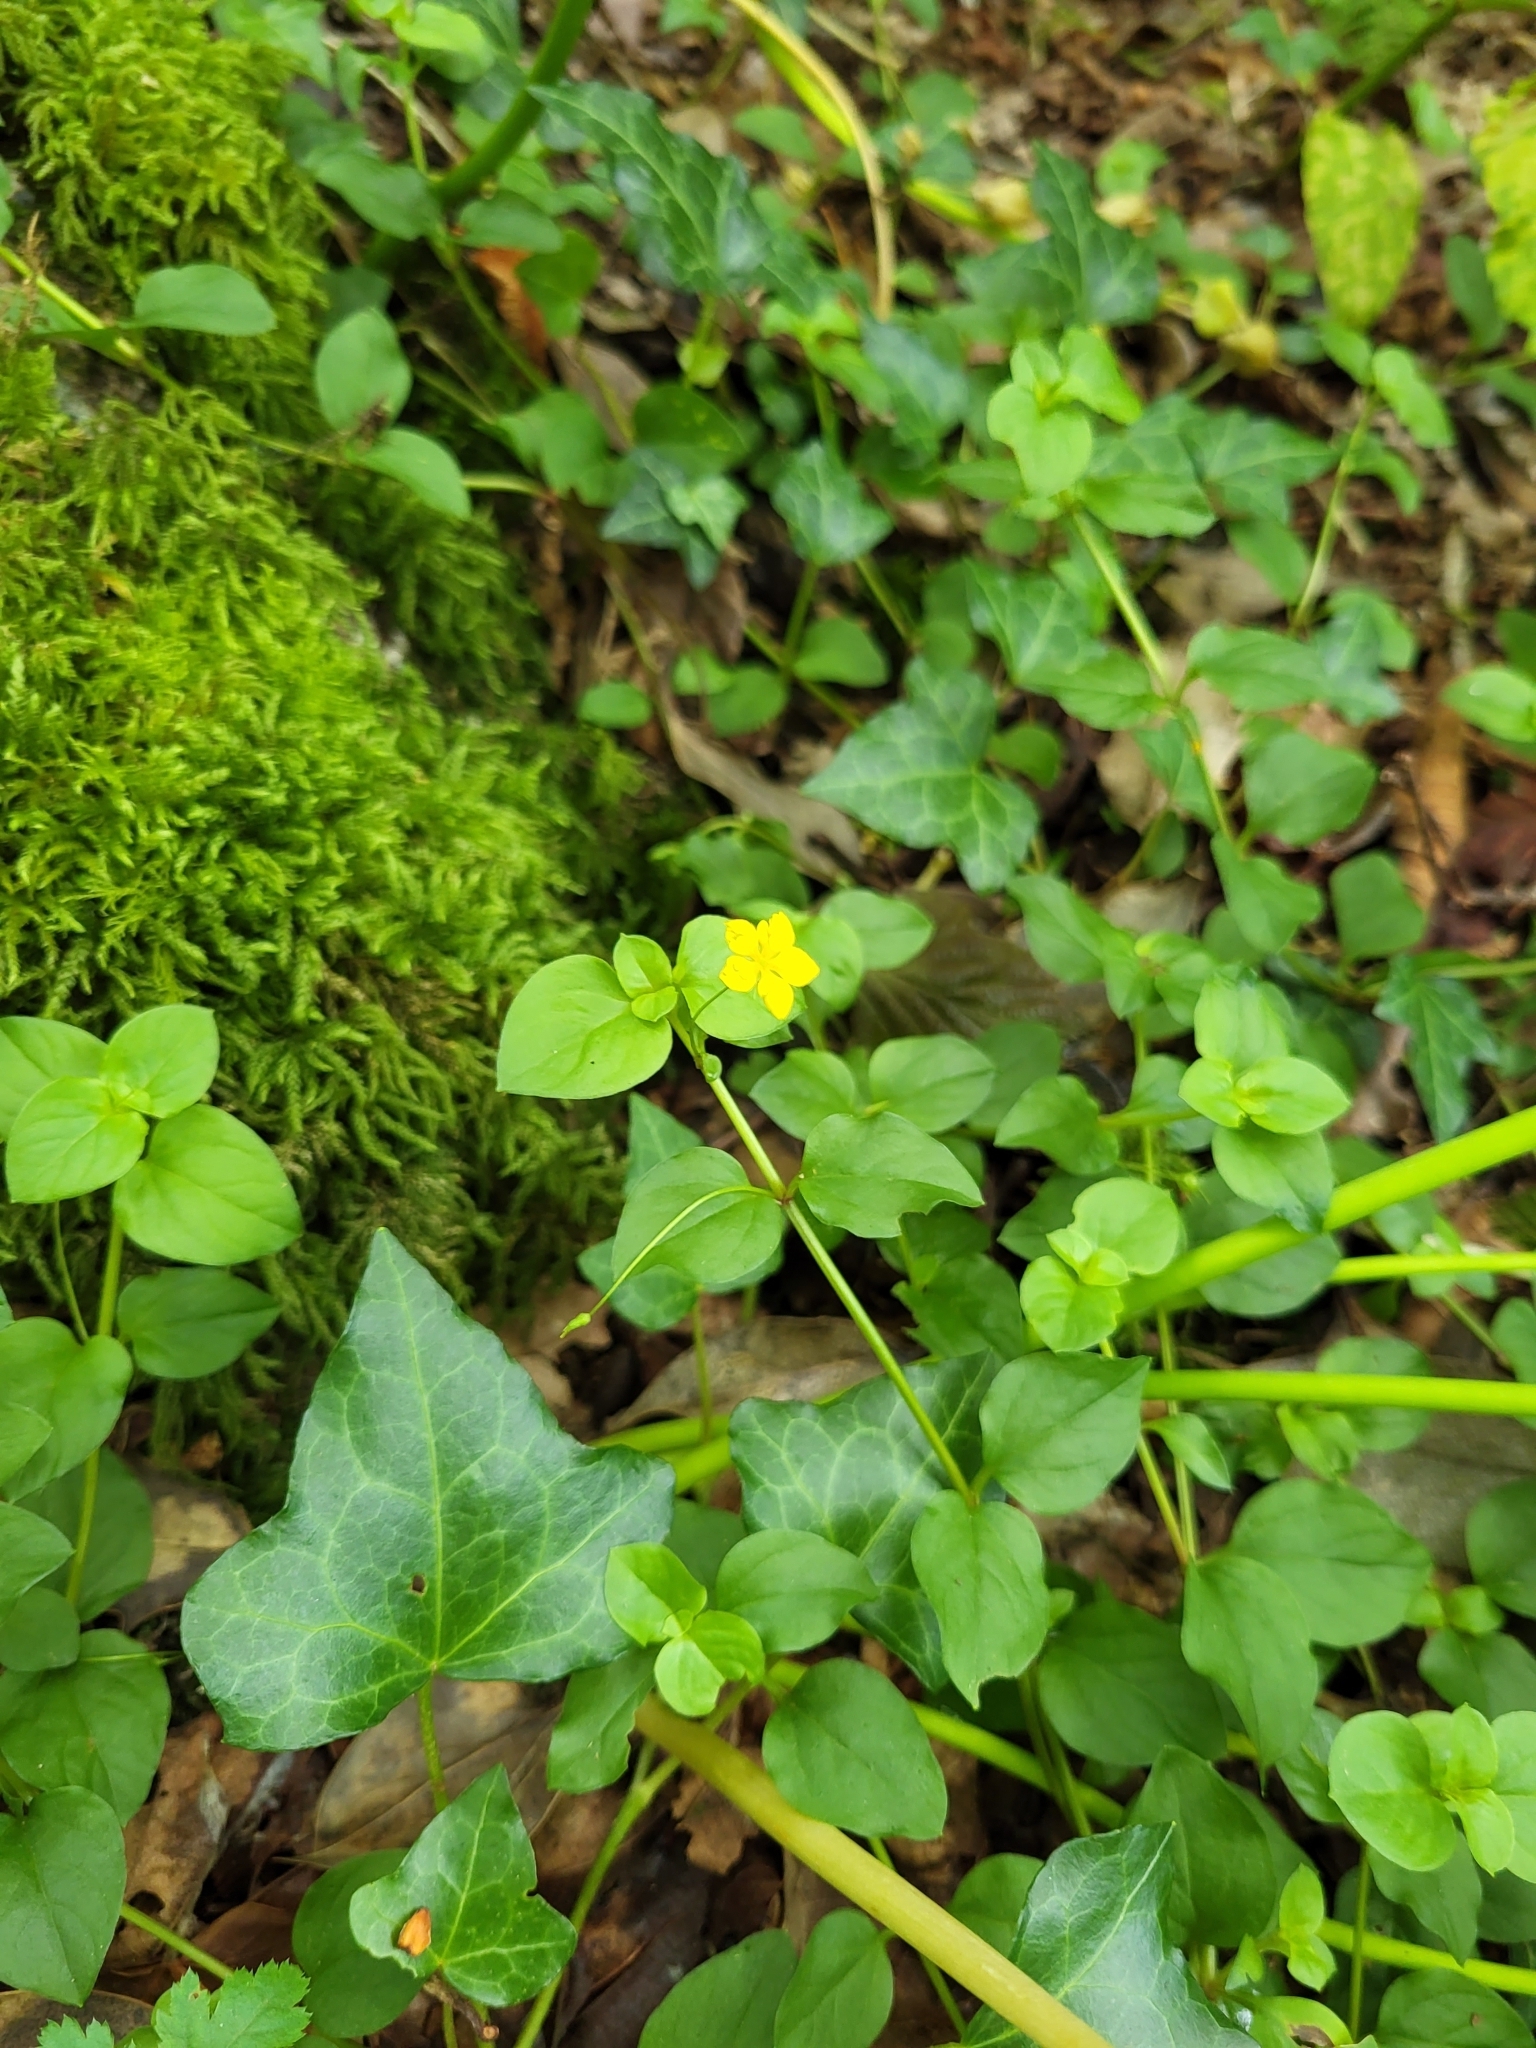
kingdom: Plantae
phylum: Tracheophyta
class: Magnoliopsida
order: Ericales
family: Primulaceae
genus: Lysimachia
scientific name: Lysimachia nemorum
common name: Yellow pimpernel
